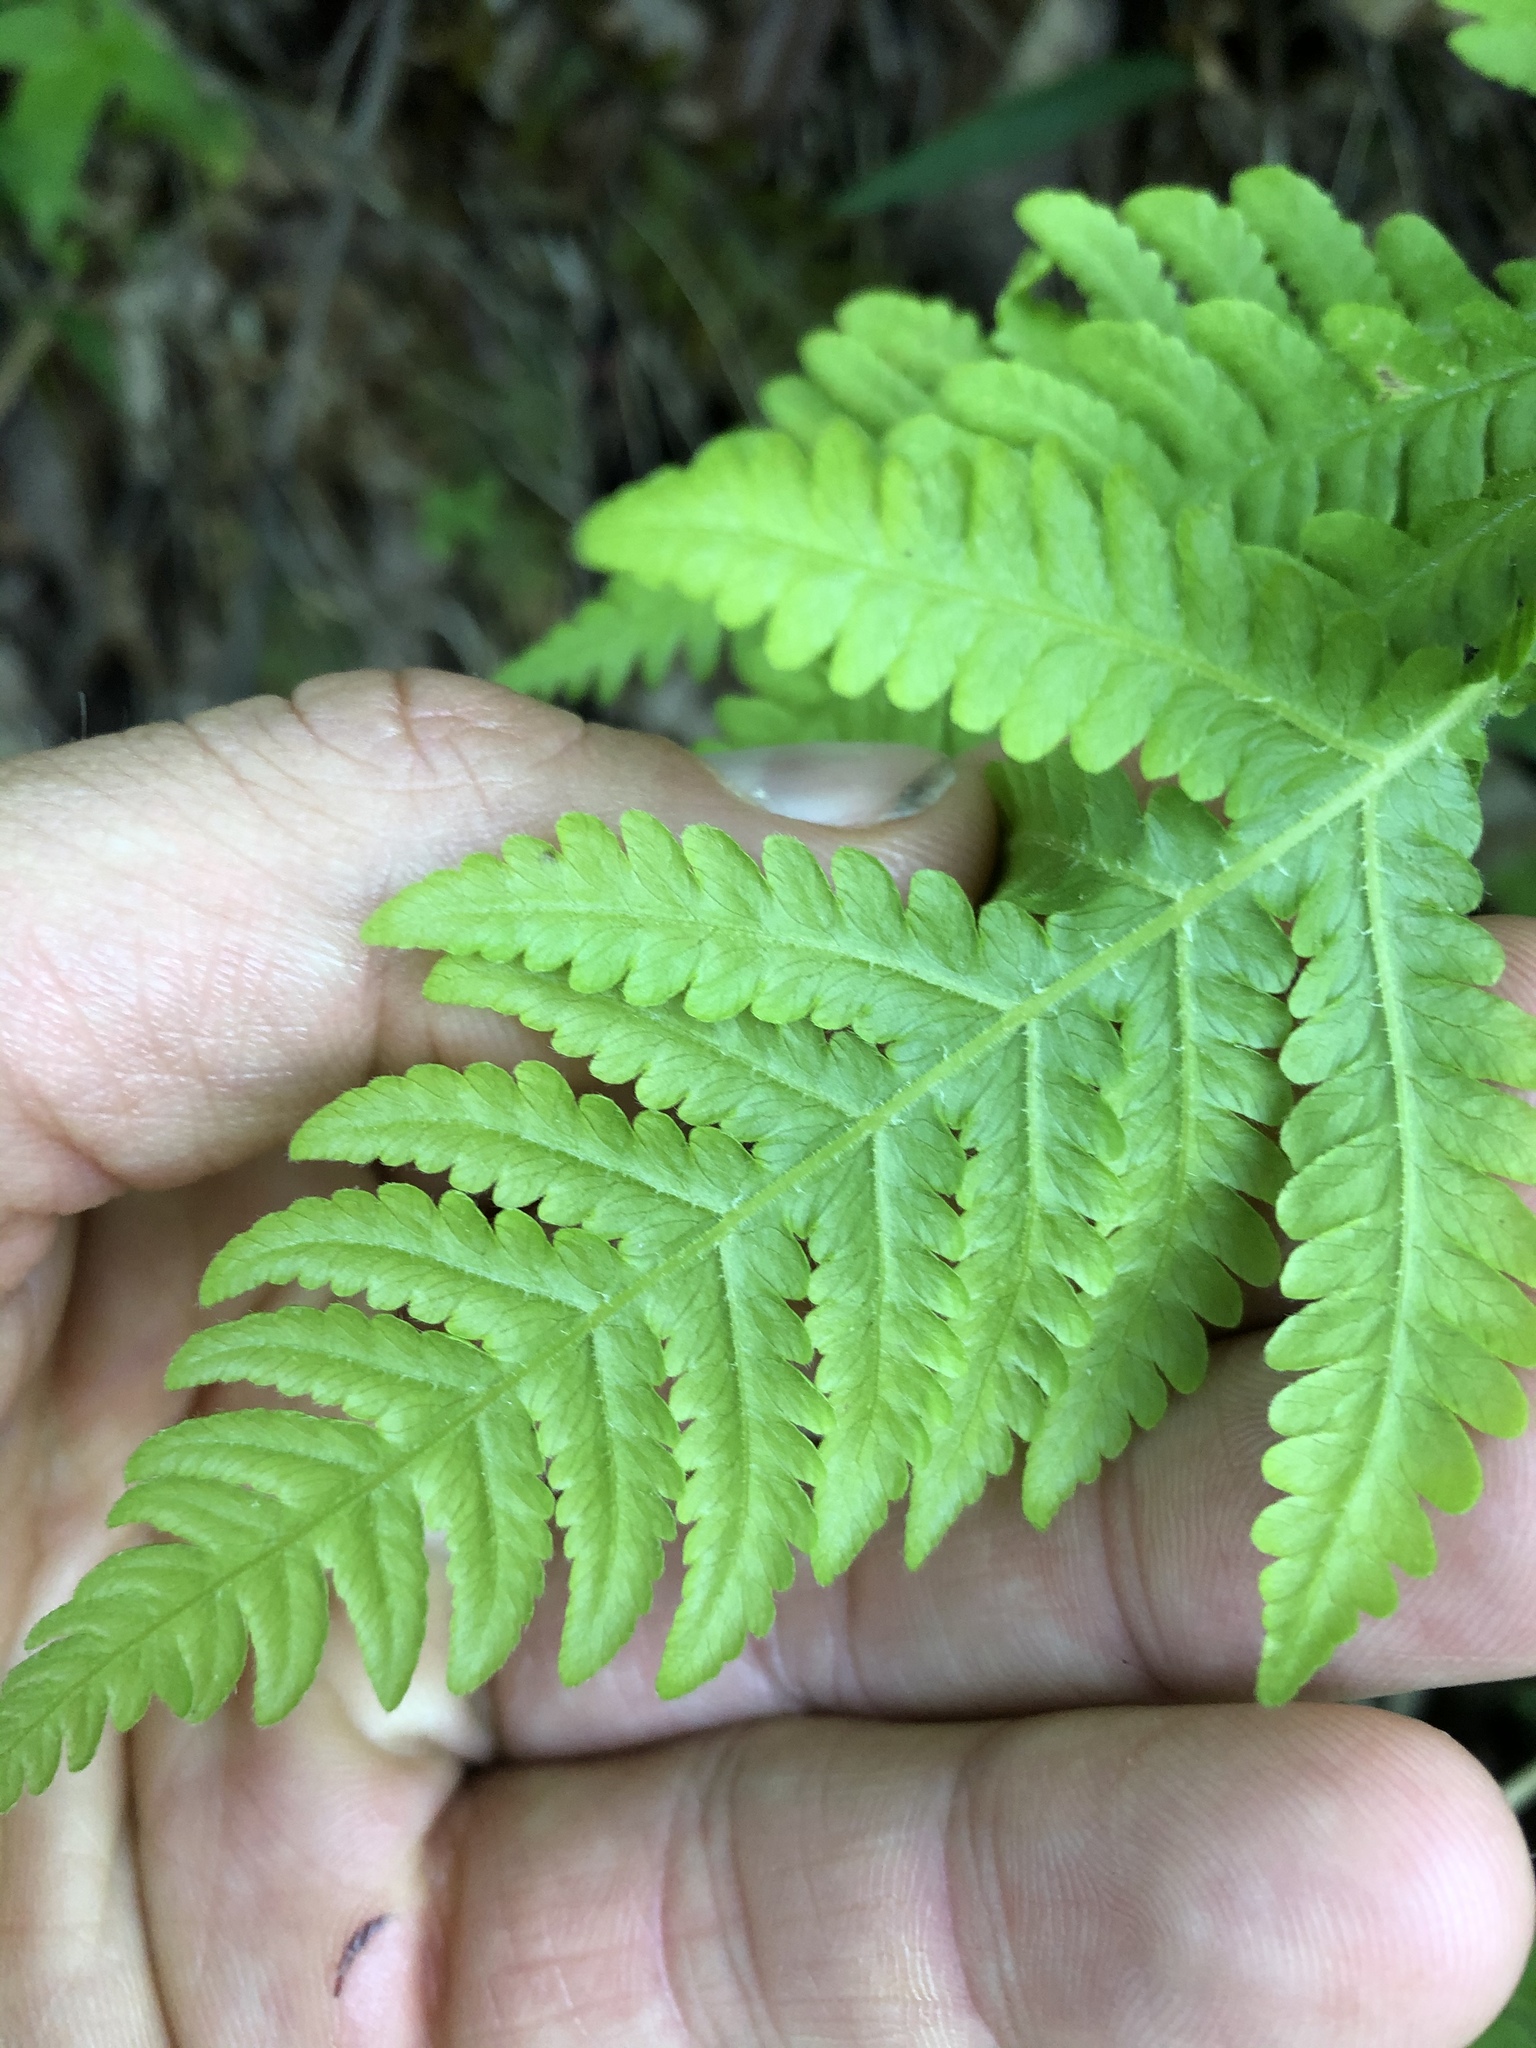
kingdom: Plantae
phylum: Tracheophyta
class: Polypodiopsida
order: Polypodiales
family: Thelypteridaceae
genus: Phegopteris
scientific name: Phegopteris hexagonoptera
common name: Broad beech fern
